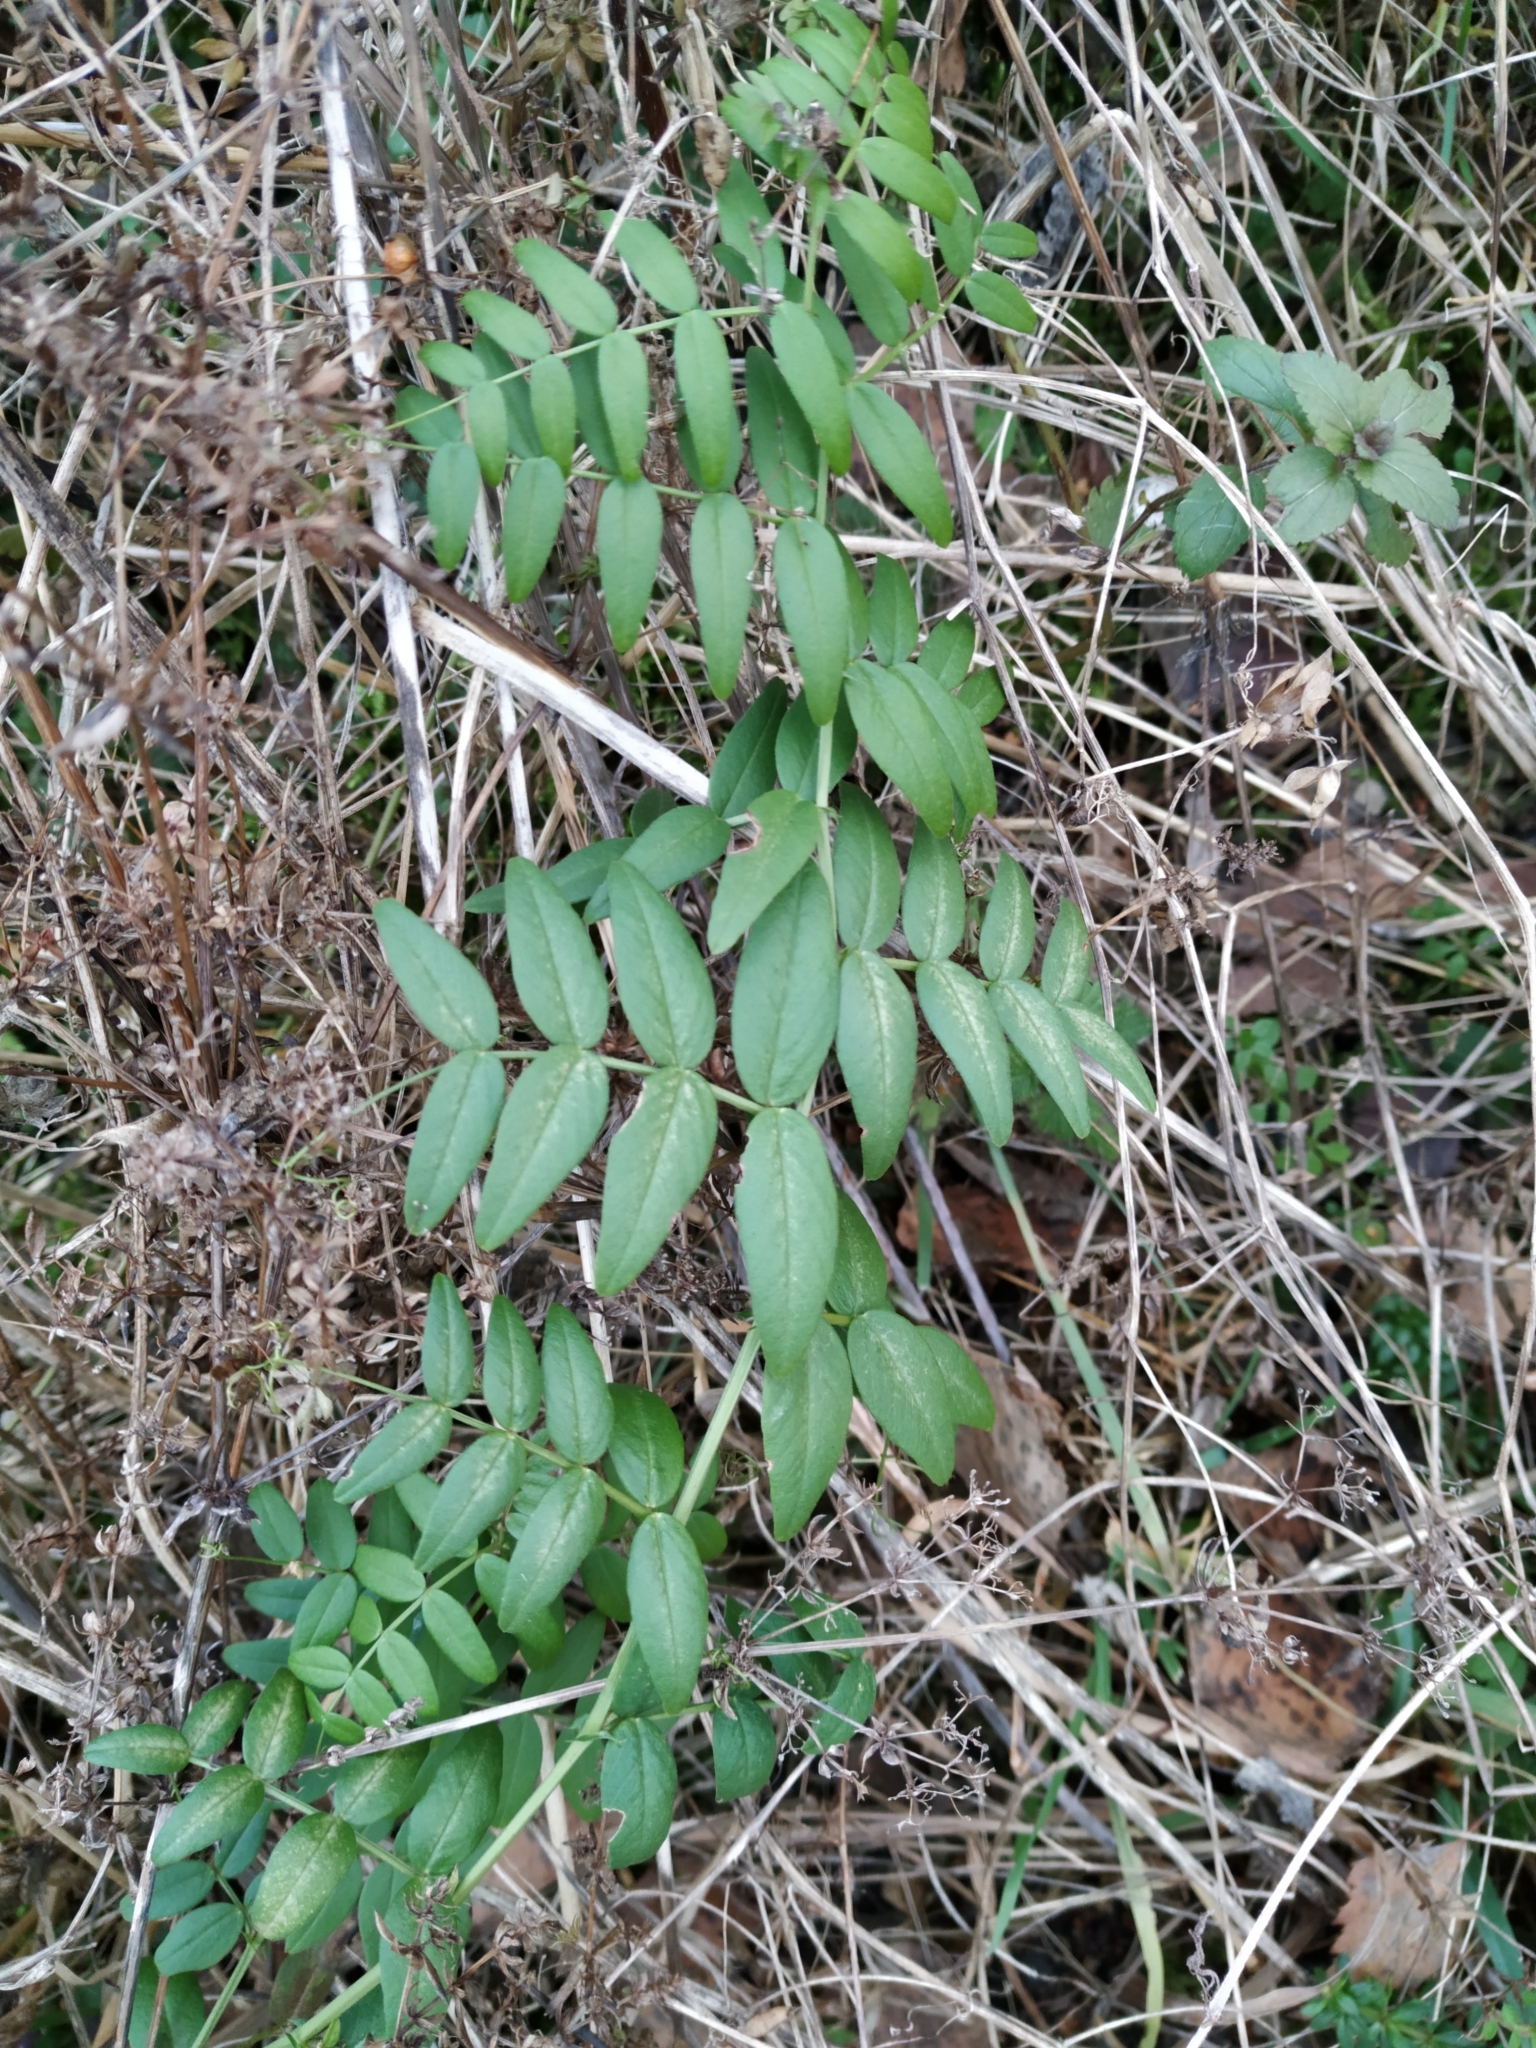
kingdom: Plantae
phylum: Tracheophyta
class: Magnoliopsida
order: Fabales
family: Fabaceae
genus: Vicia
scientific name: Vicia sepium
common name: Bush vetch
